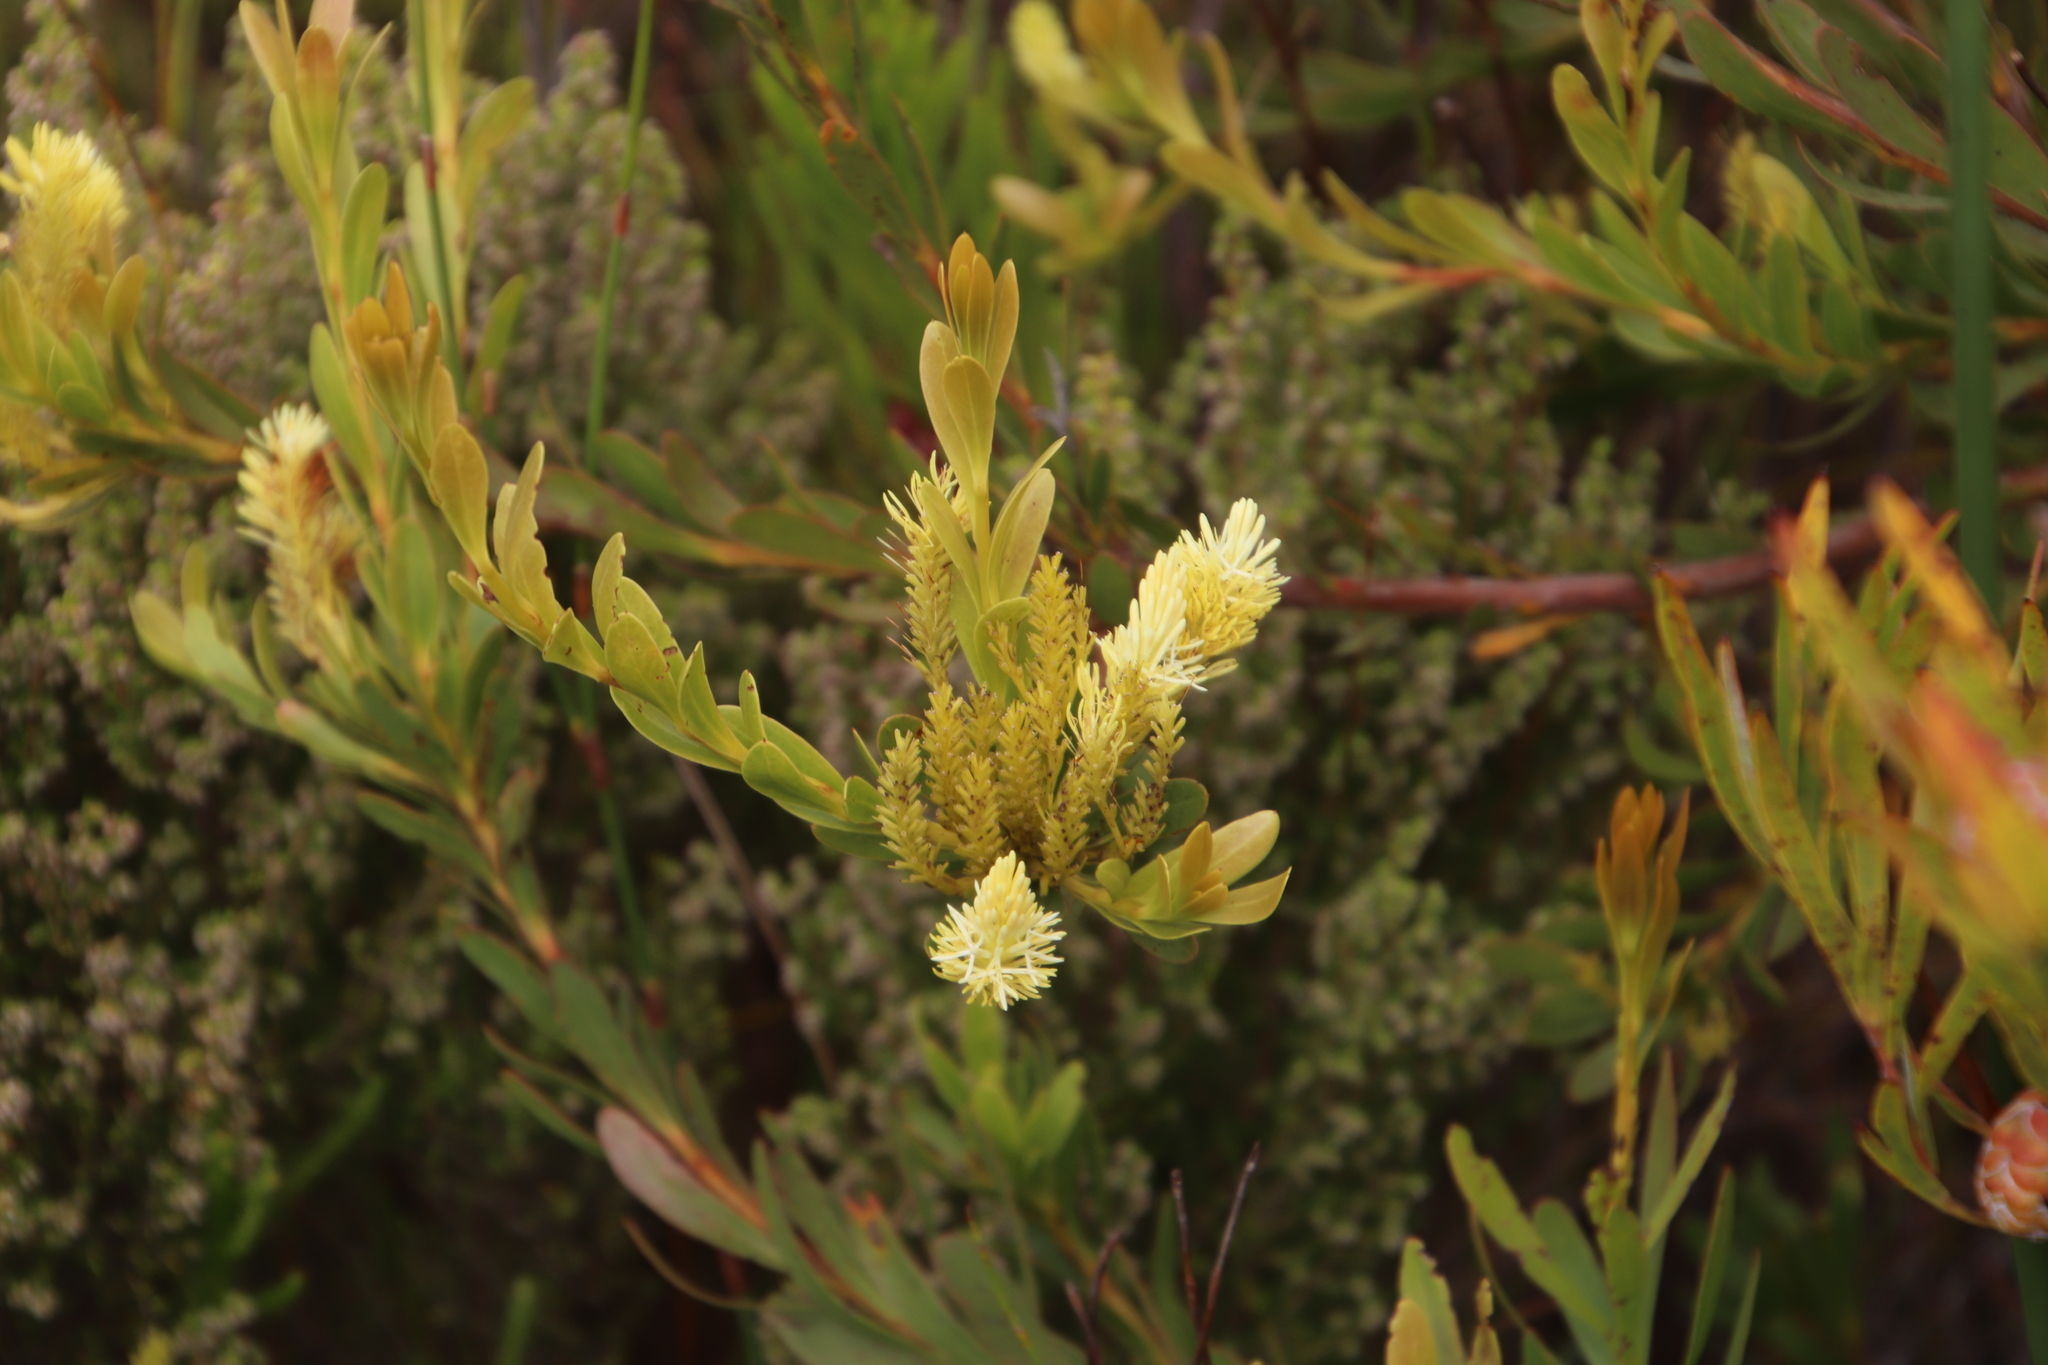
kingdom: Plantae
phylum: Tracheophyta
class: Magnoliopsida
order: Proteales
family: Proteaceae
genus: Aulax
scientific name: Aulax umbellata
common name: Broad-leaf featherbush
